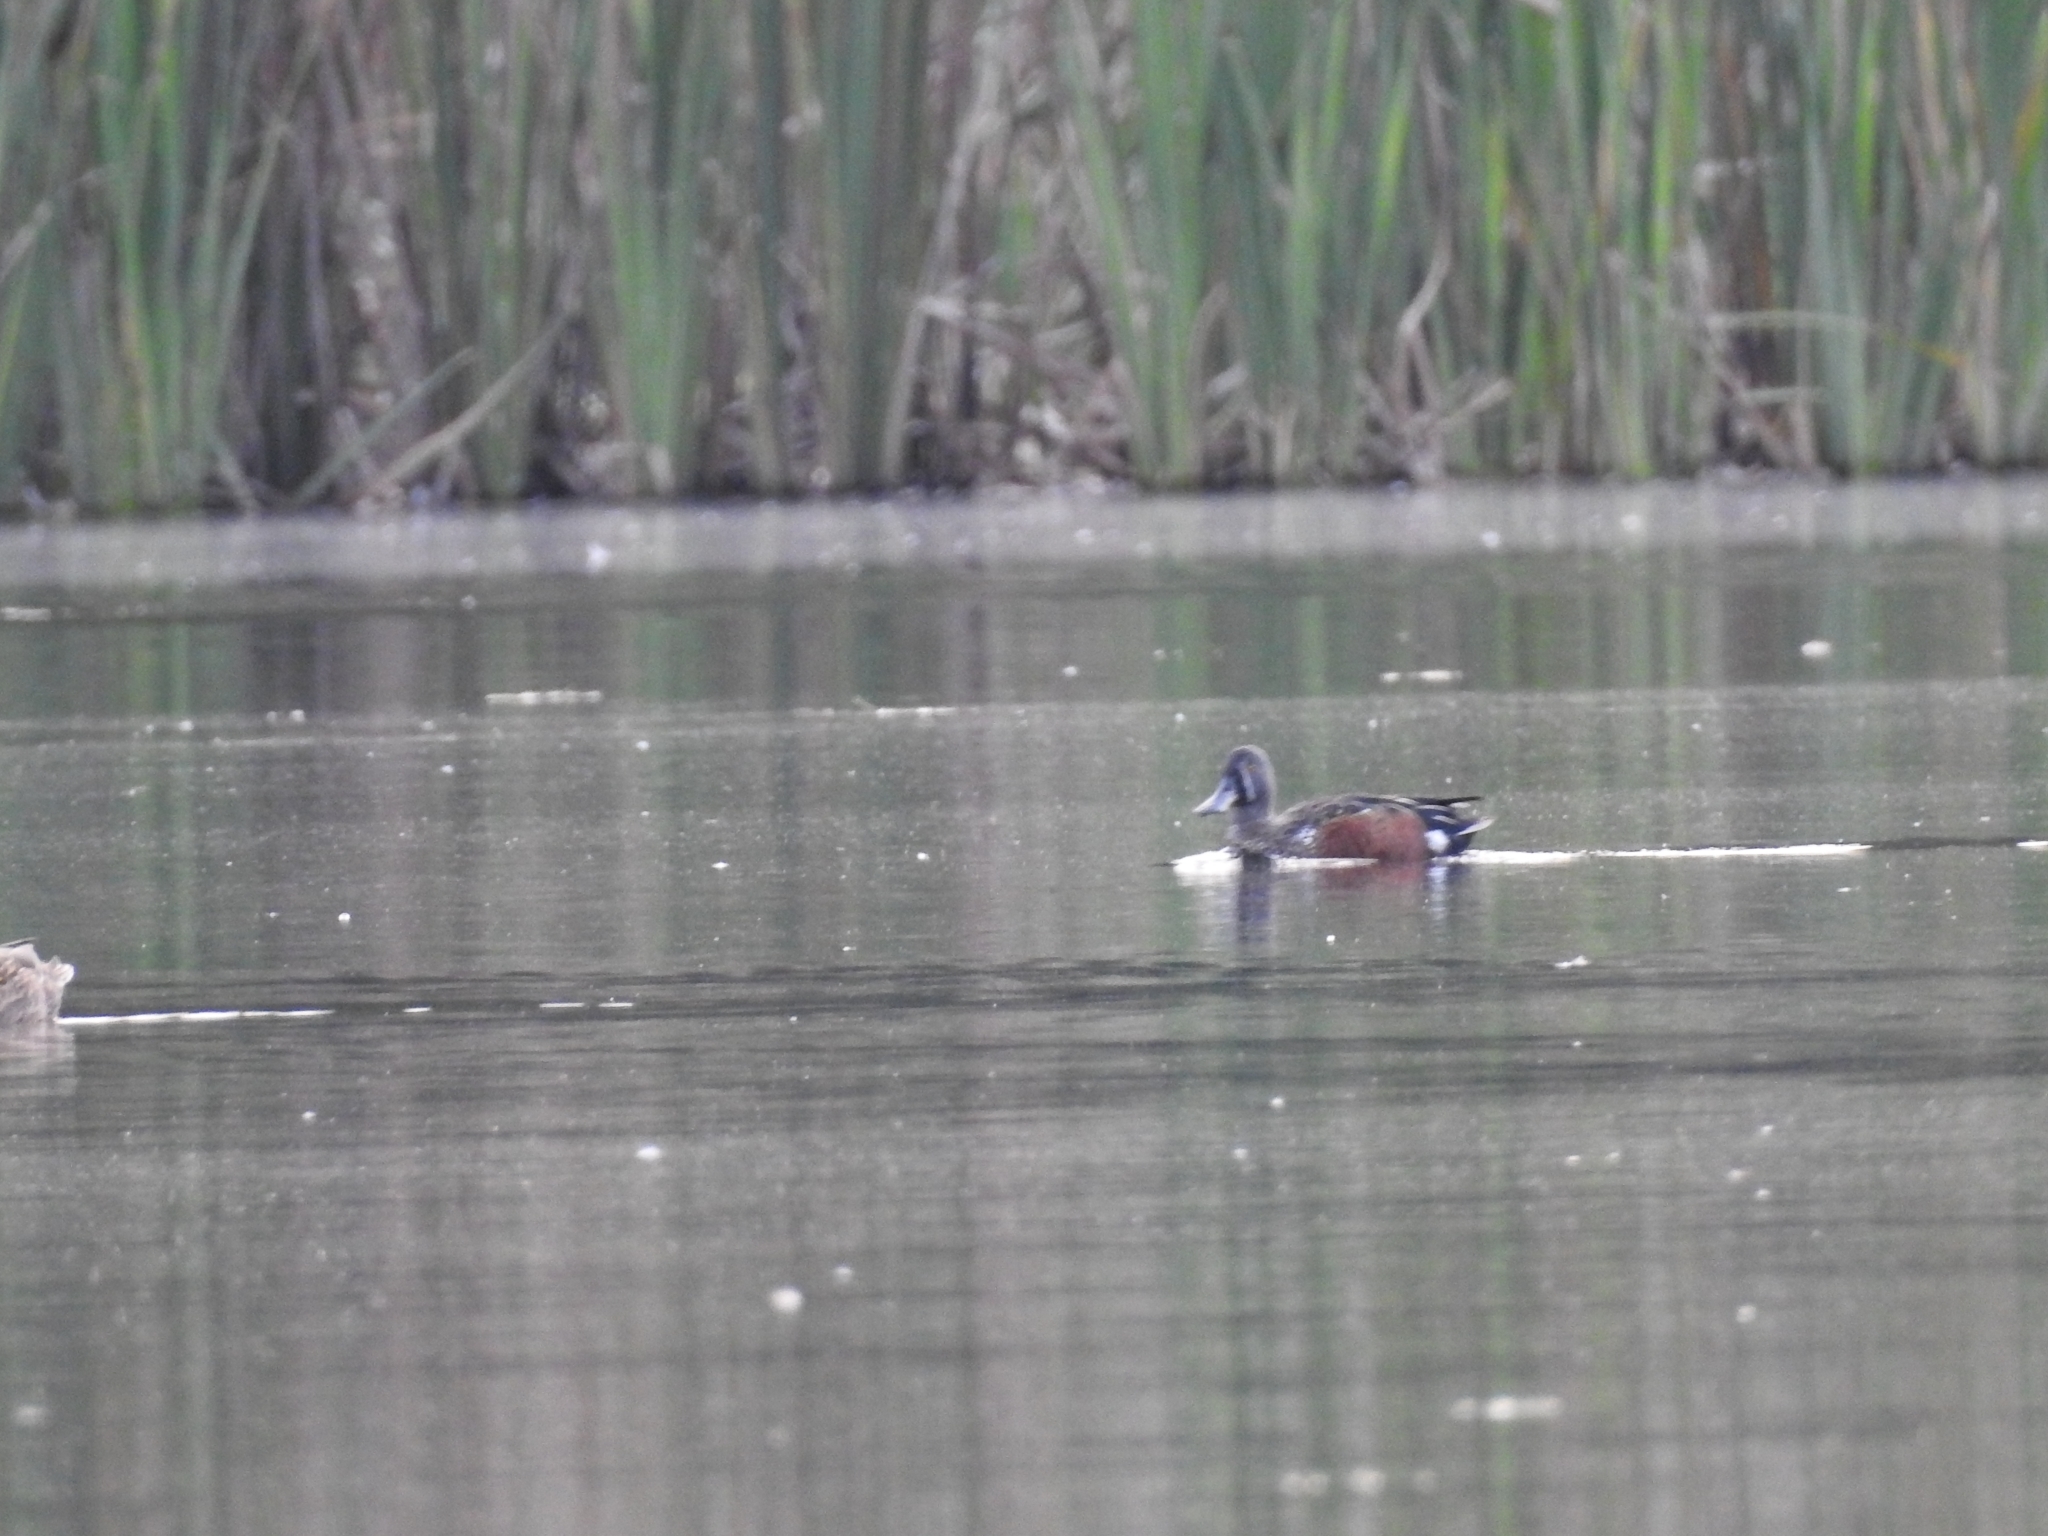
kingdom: Animalia
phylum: Chordata
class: Aves
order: Anseriformes
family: Anatidae
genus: Spatula
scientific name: Spatula rhynchotis
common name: Australian shoveler
